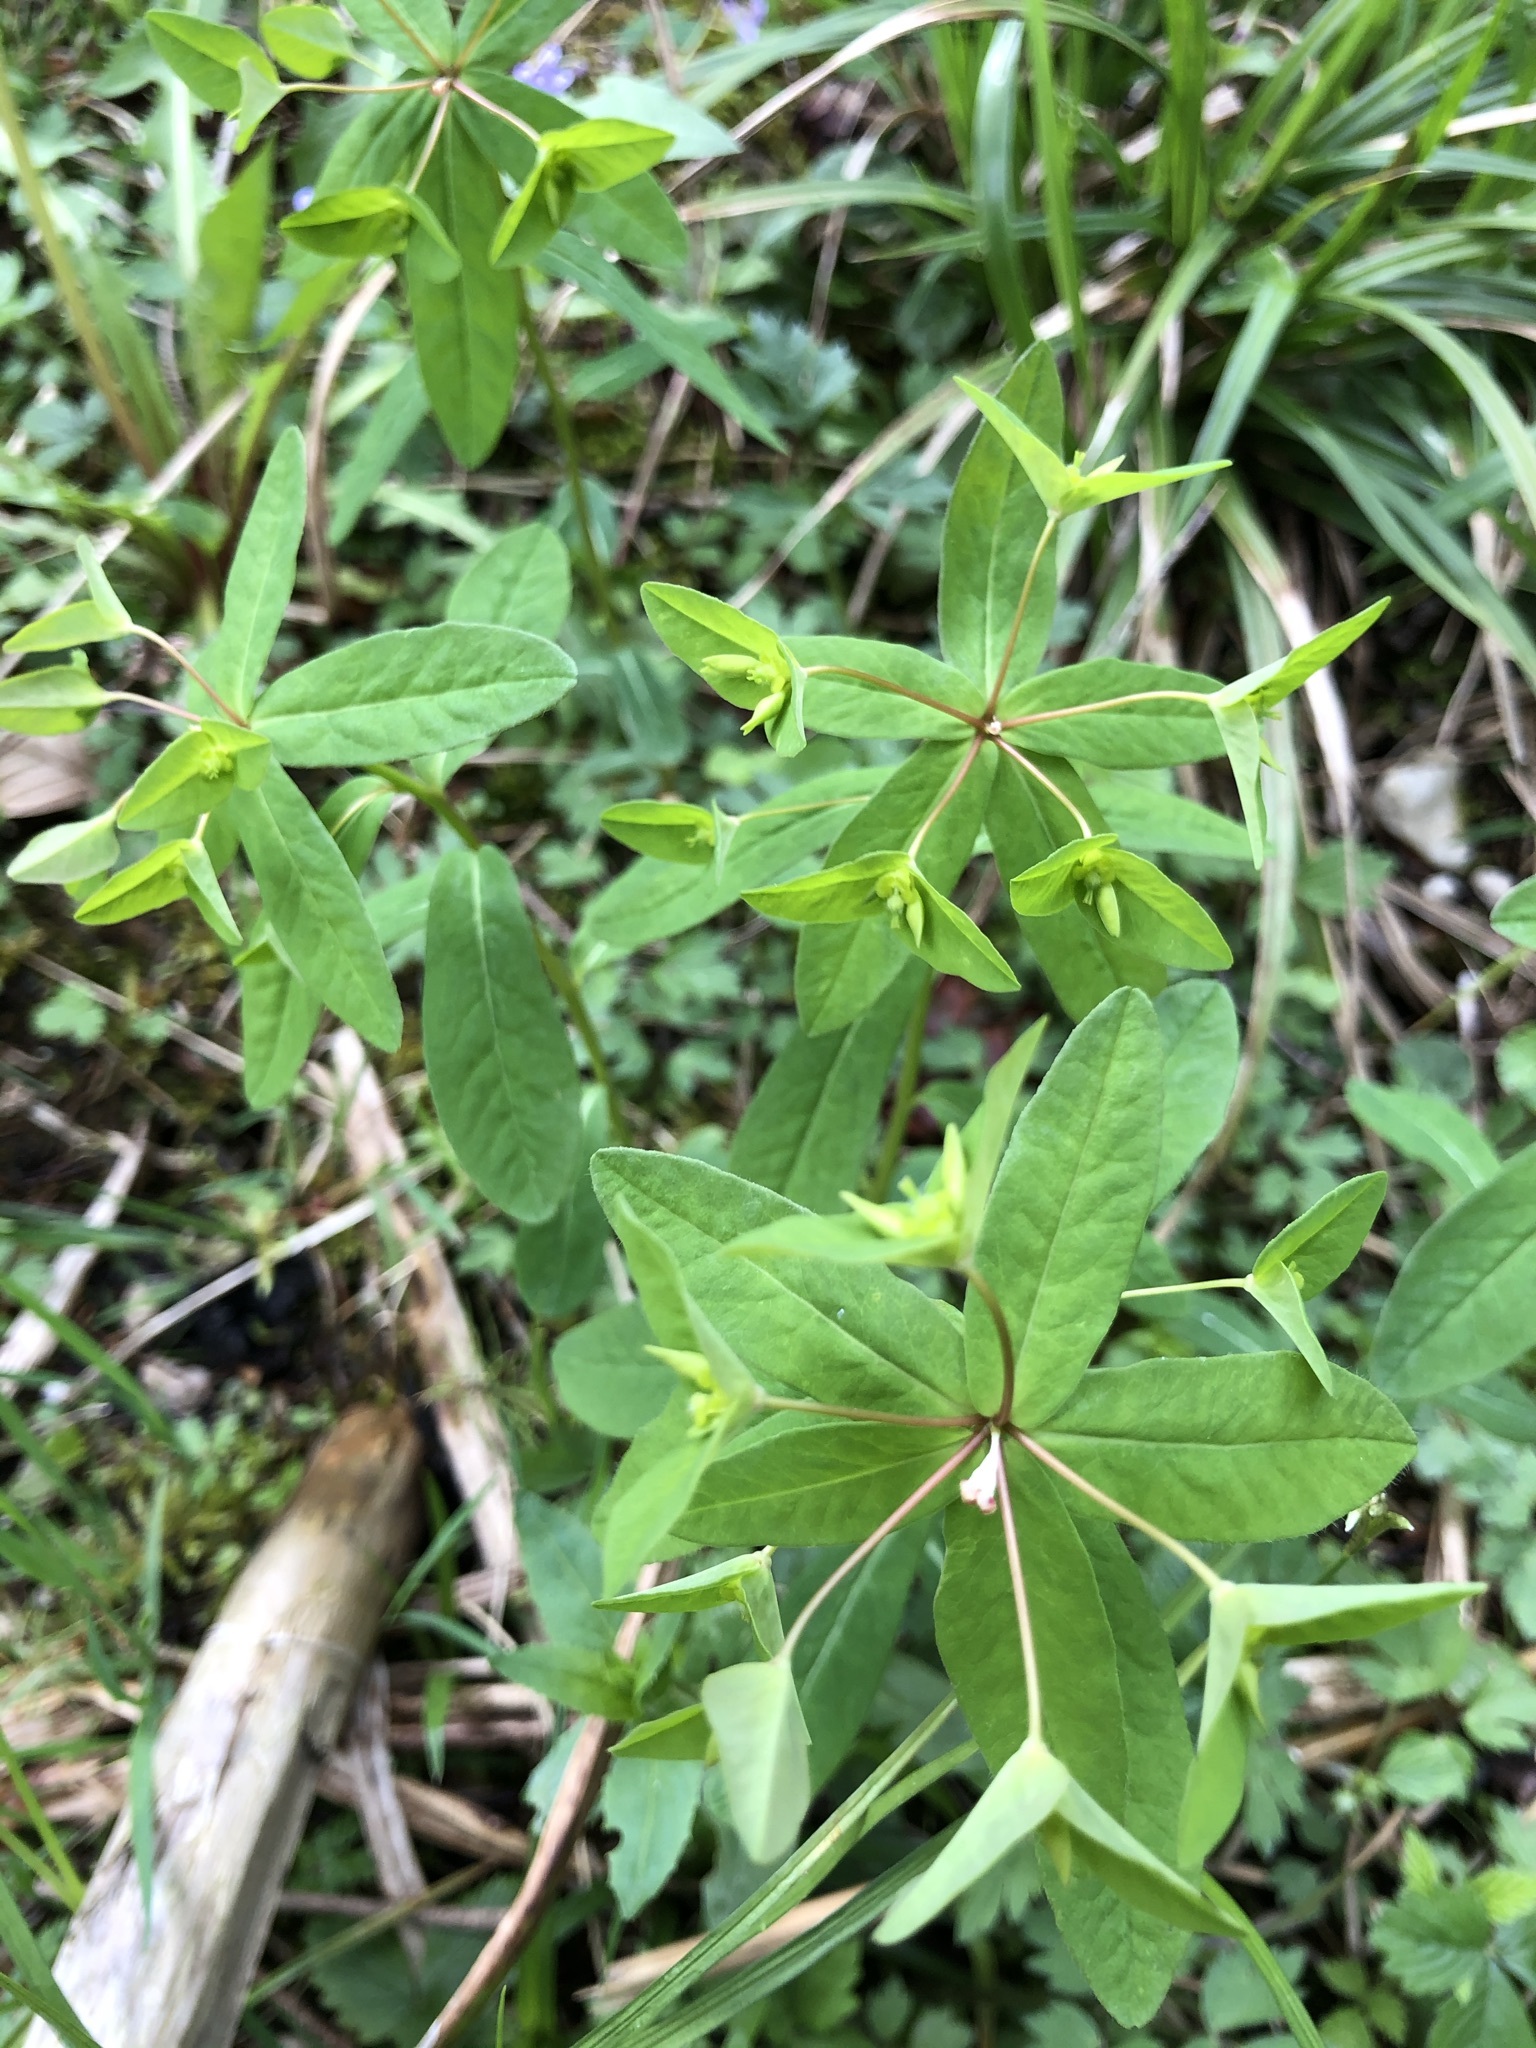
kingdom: Plantae
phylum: Tracheophyta
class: Magnoliopsida
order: Malpighiales
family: Euphorbiaceae
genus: Euphorbia
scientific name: Euphorbia dulcis
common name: Sweet spurge
